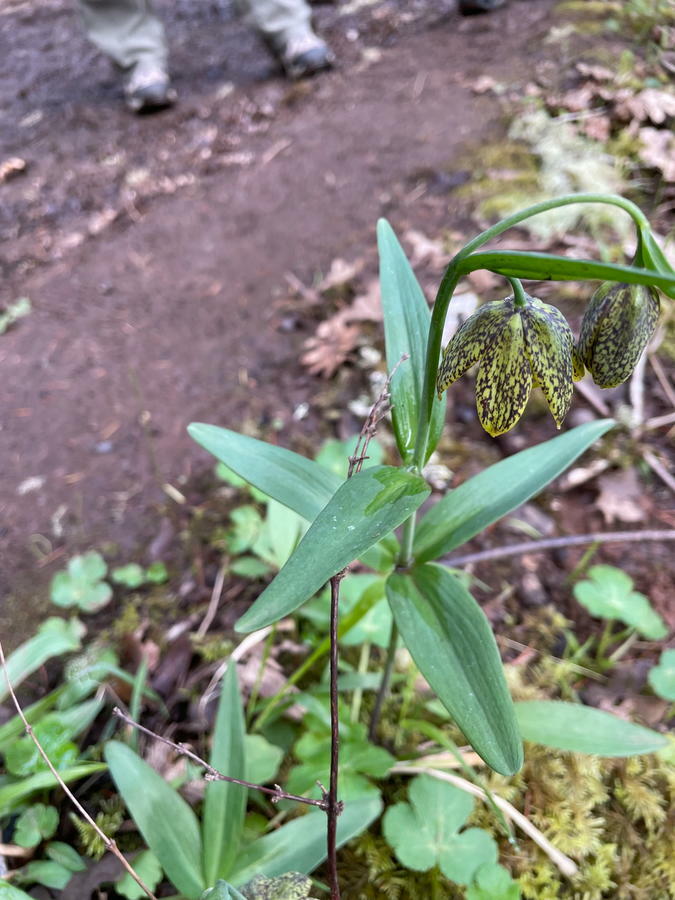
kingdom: Plantae
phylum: Tracheophyta
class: Liliopsida
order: Liliales
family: Liliaceae
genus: Fritillaria
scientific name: Fritillaria affinis
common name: Ojai fritillary
